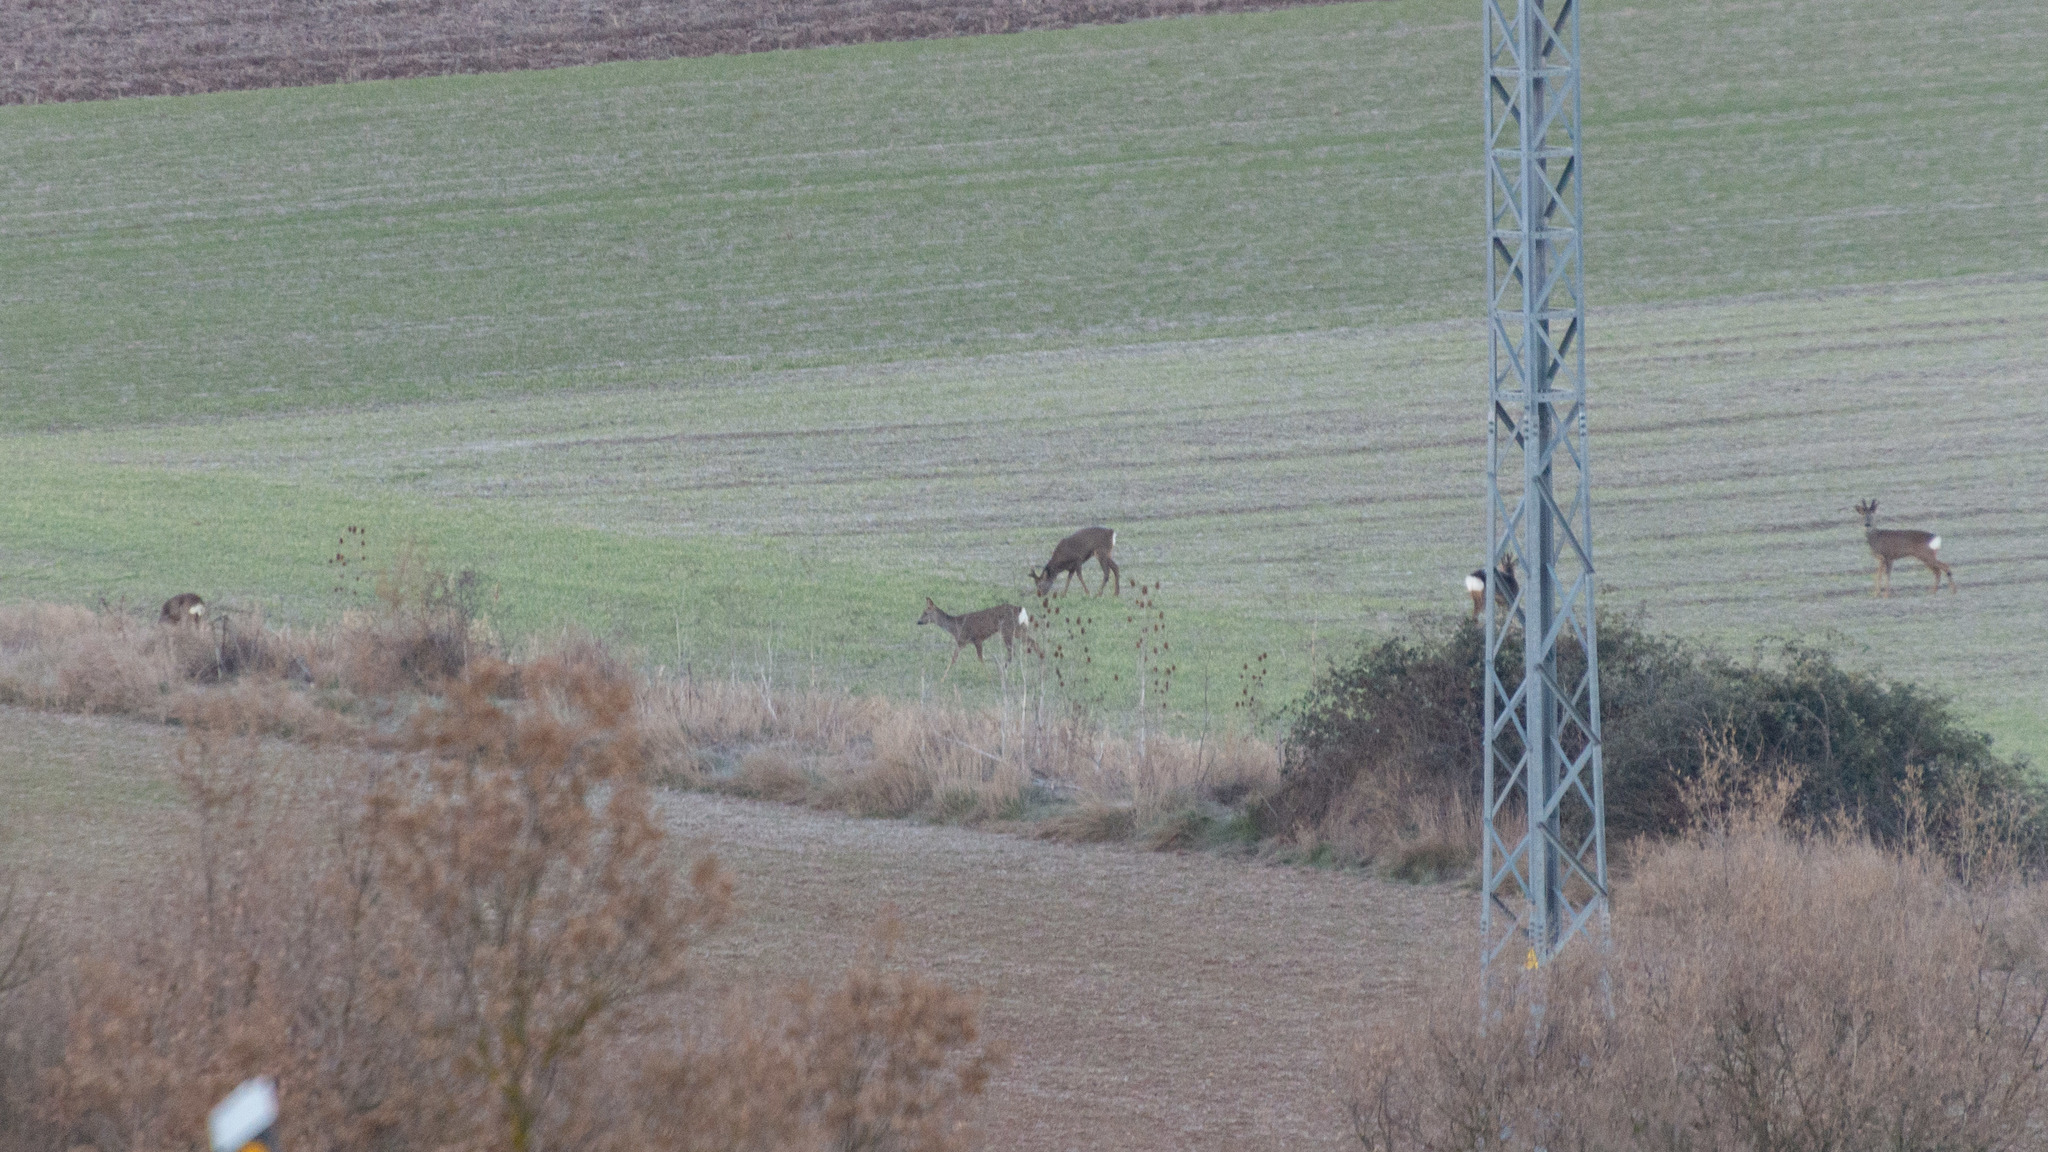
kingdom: Animalia
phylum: Chordata
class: Mammalia
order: Artiodactyla
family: Cervidae
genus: Capreolus
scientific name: Capreolus capreolus
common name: Western roe deer
